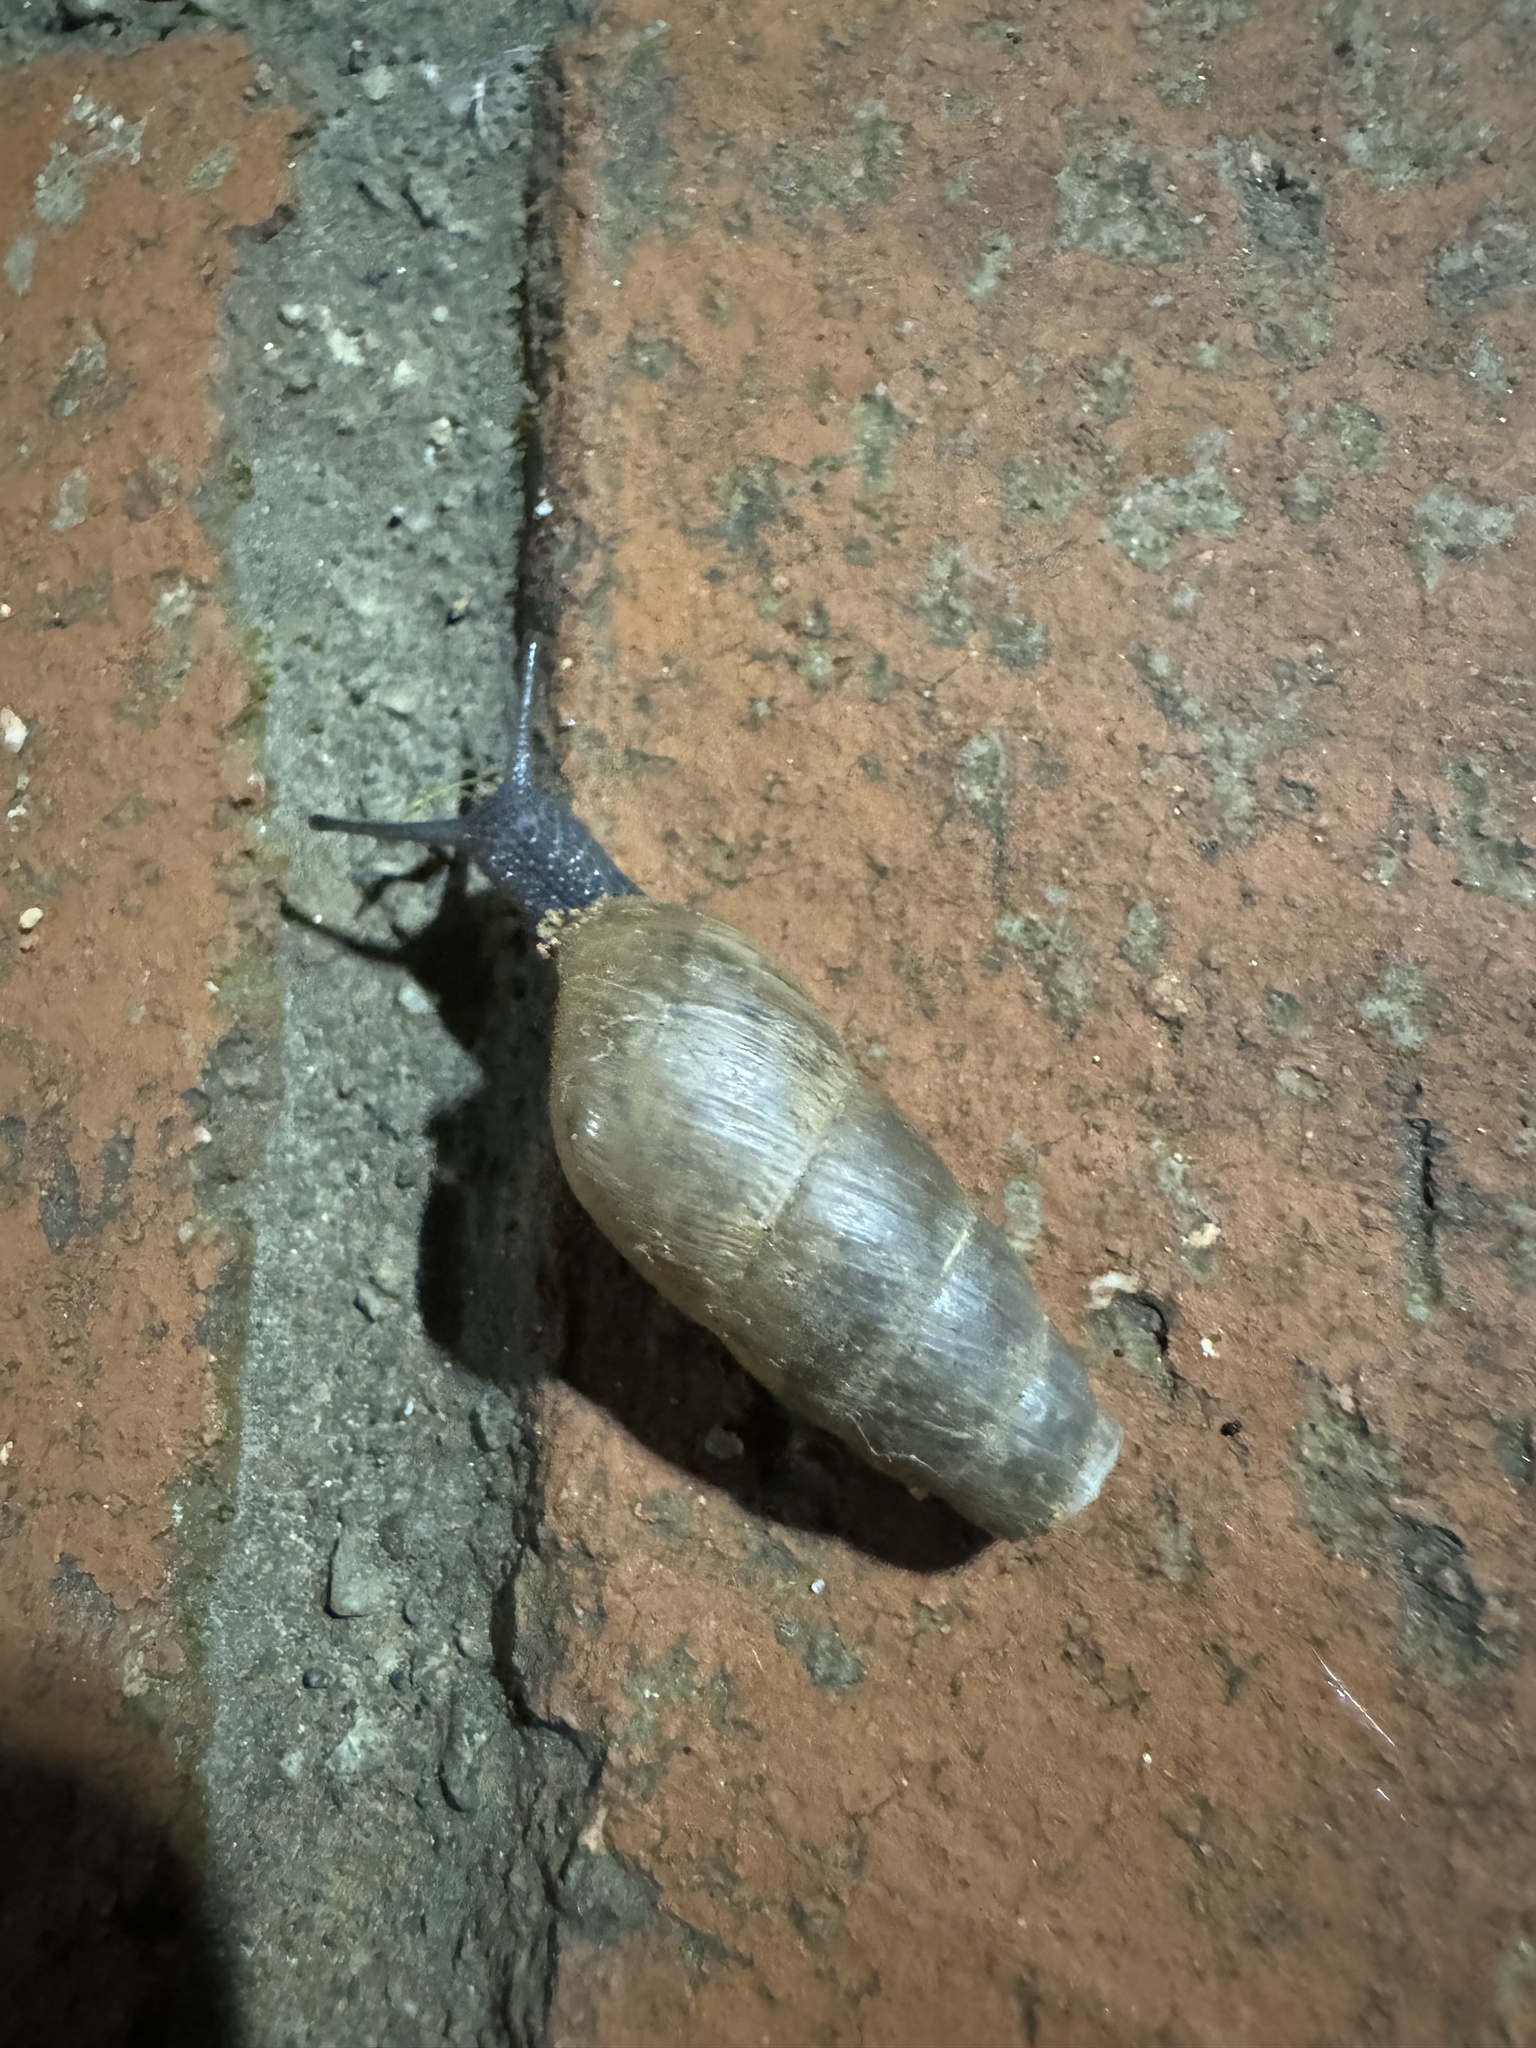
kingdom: Animalia
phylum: Mollusca
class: Gastropoda
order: Stylommatophora
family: Achatinidae
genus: Rumina
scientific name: Rumina decollata
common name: Decollate snail
